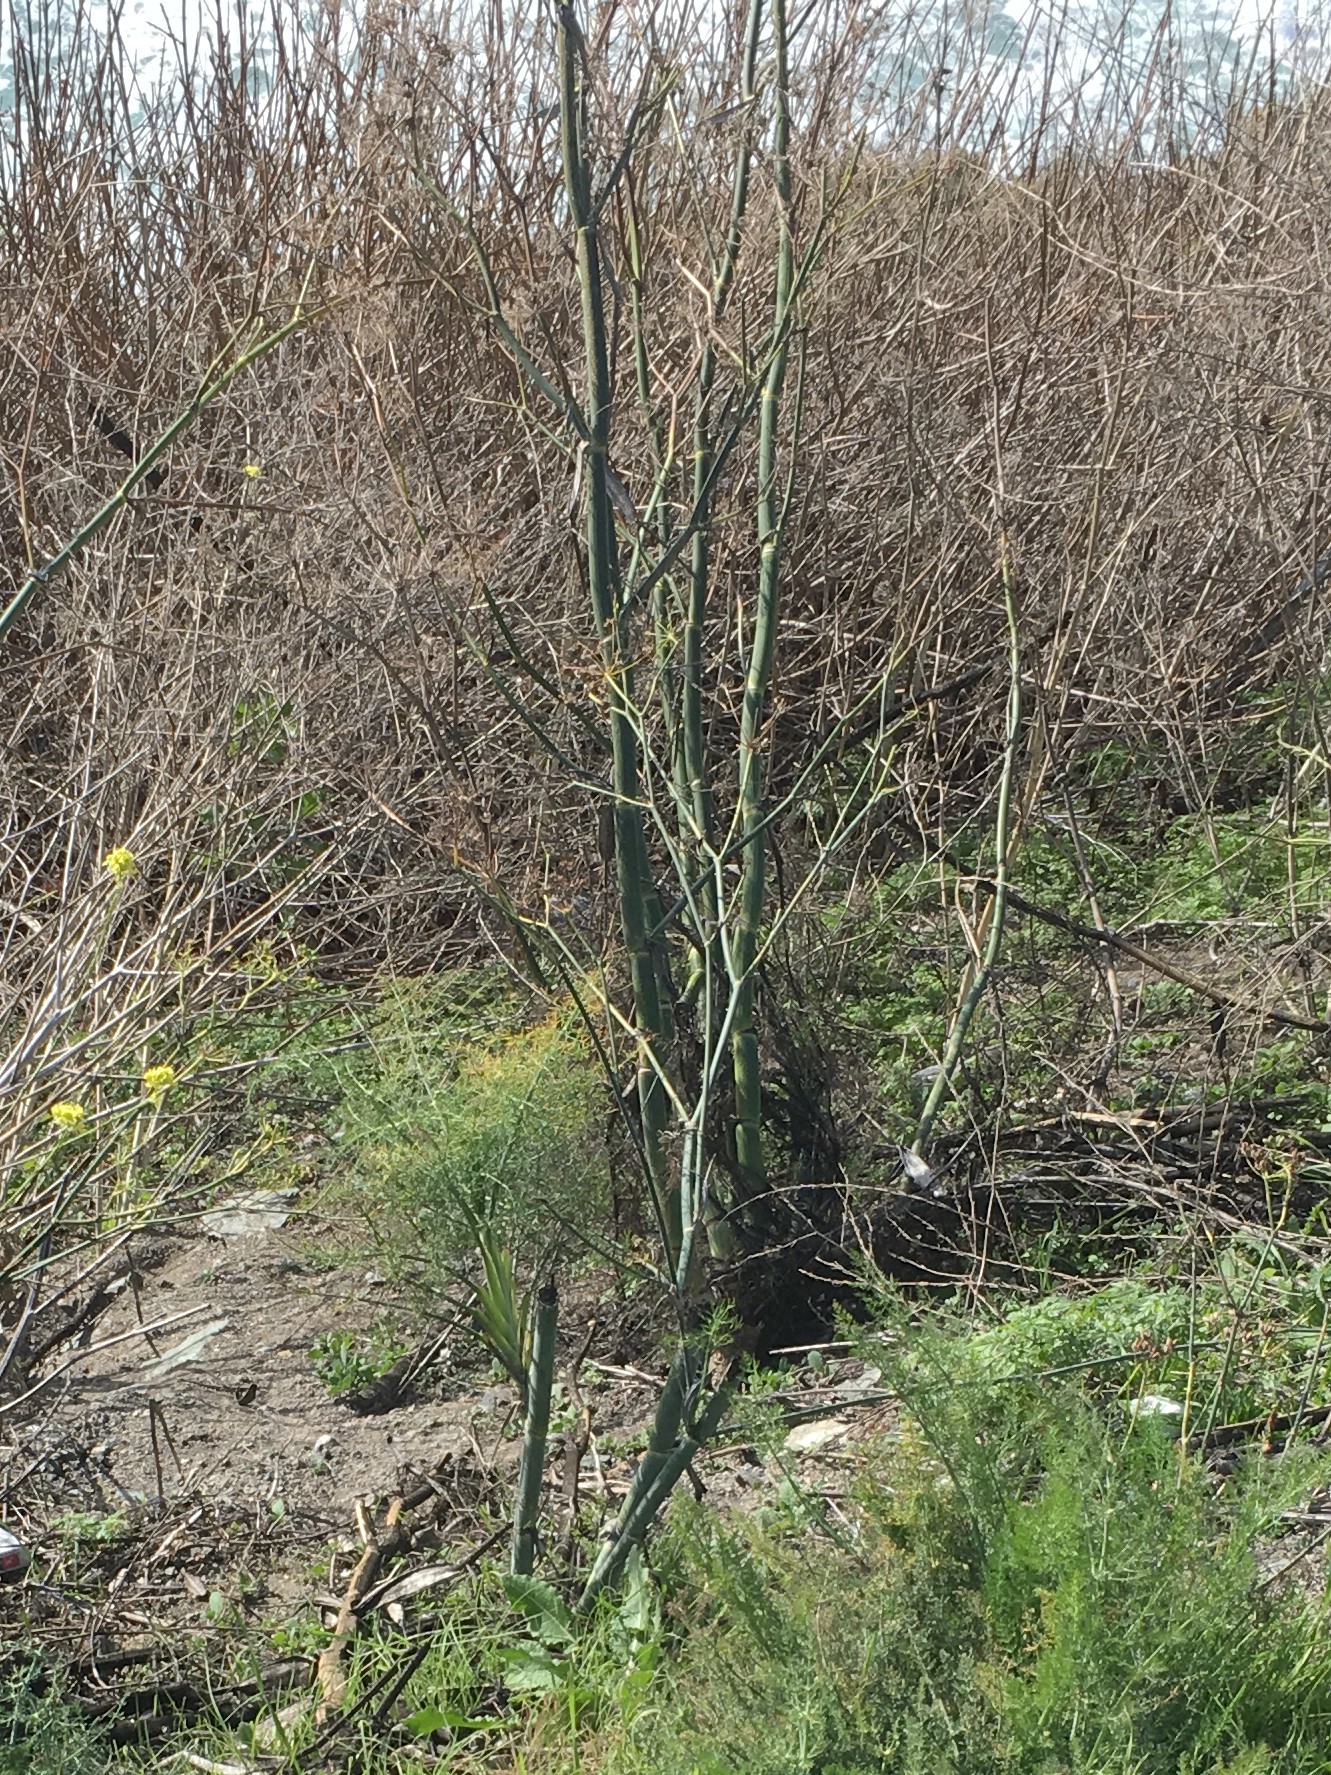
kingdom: Plantae
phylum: Tracheophyta
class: Magnoliopsida
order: Apiales
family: Apiaceae
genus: Foeniculum
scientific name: Foeniculum vulgare
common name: Fennel
